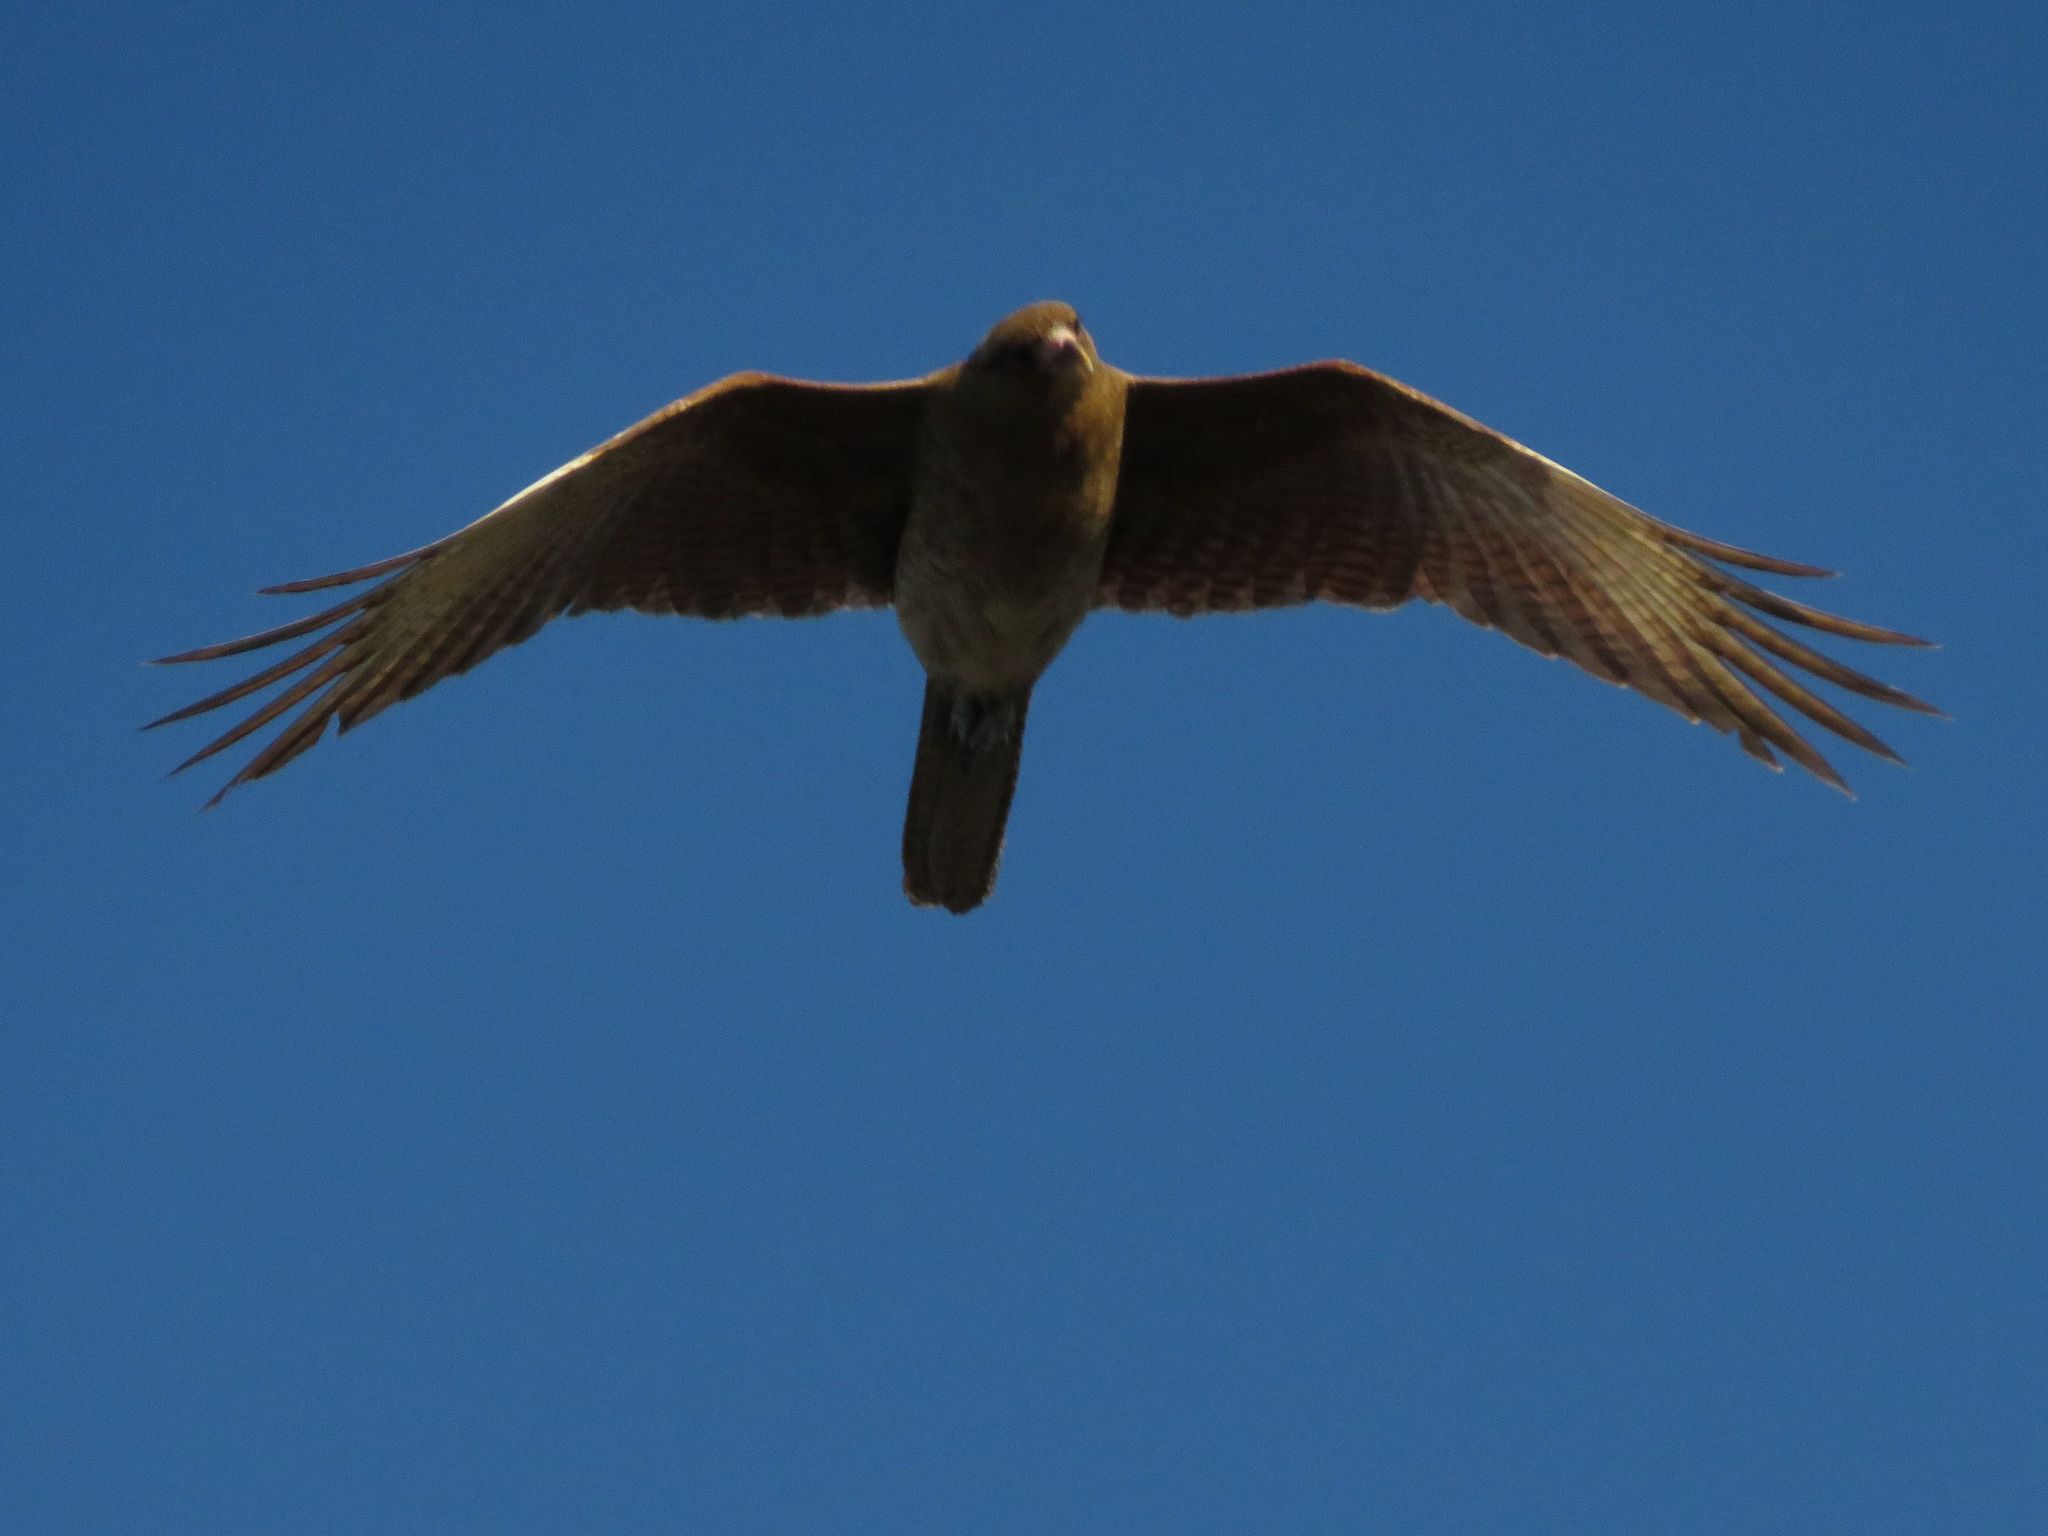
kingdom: Animalia
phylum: Chordata
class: Aves
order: Falconiformes
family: Falconidae
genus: Daptrius
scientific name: Daptrius
